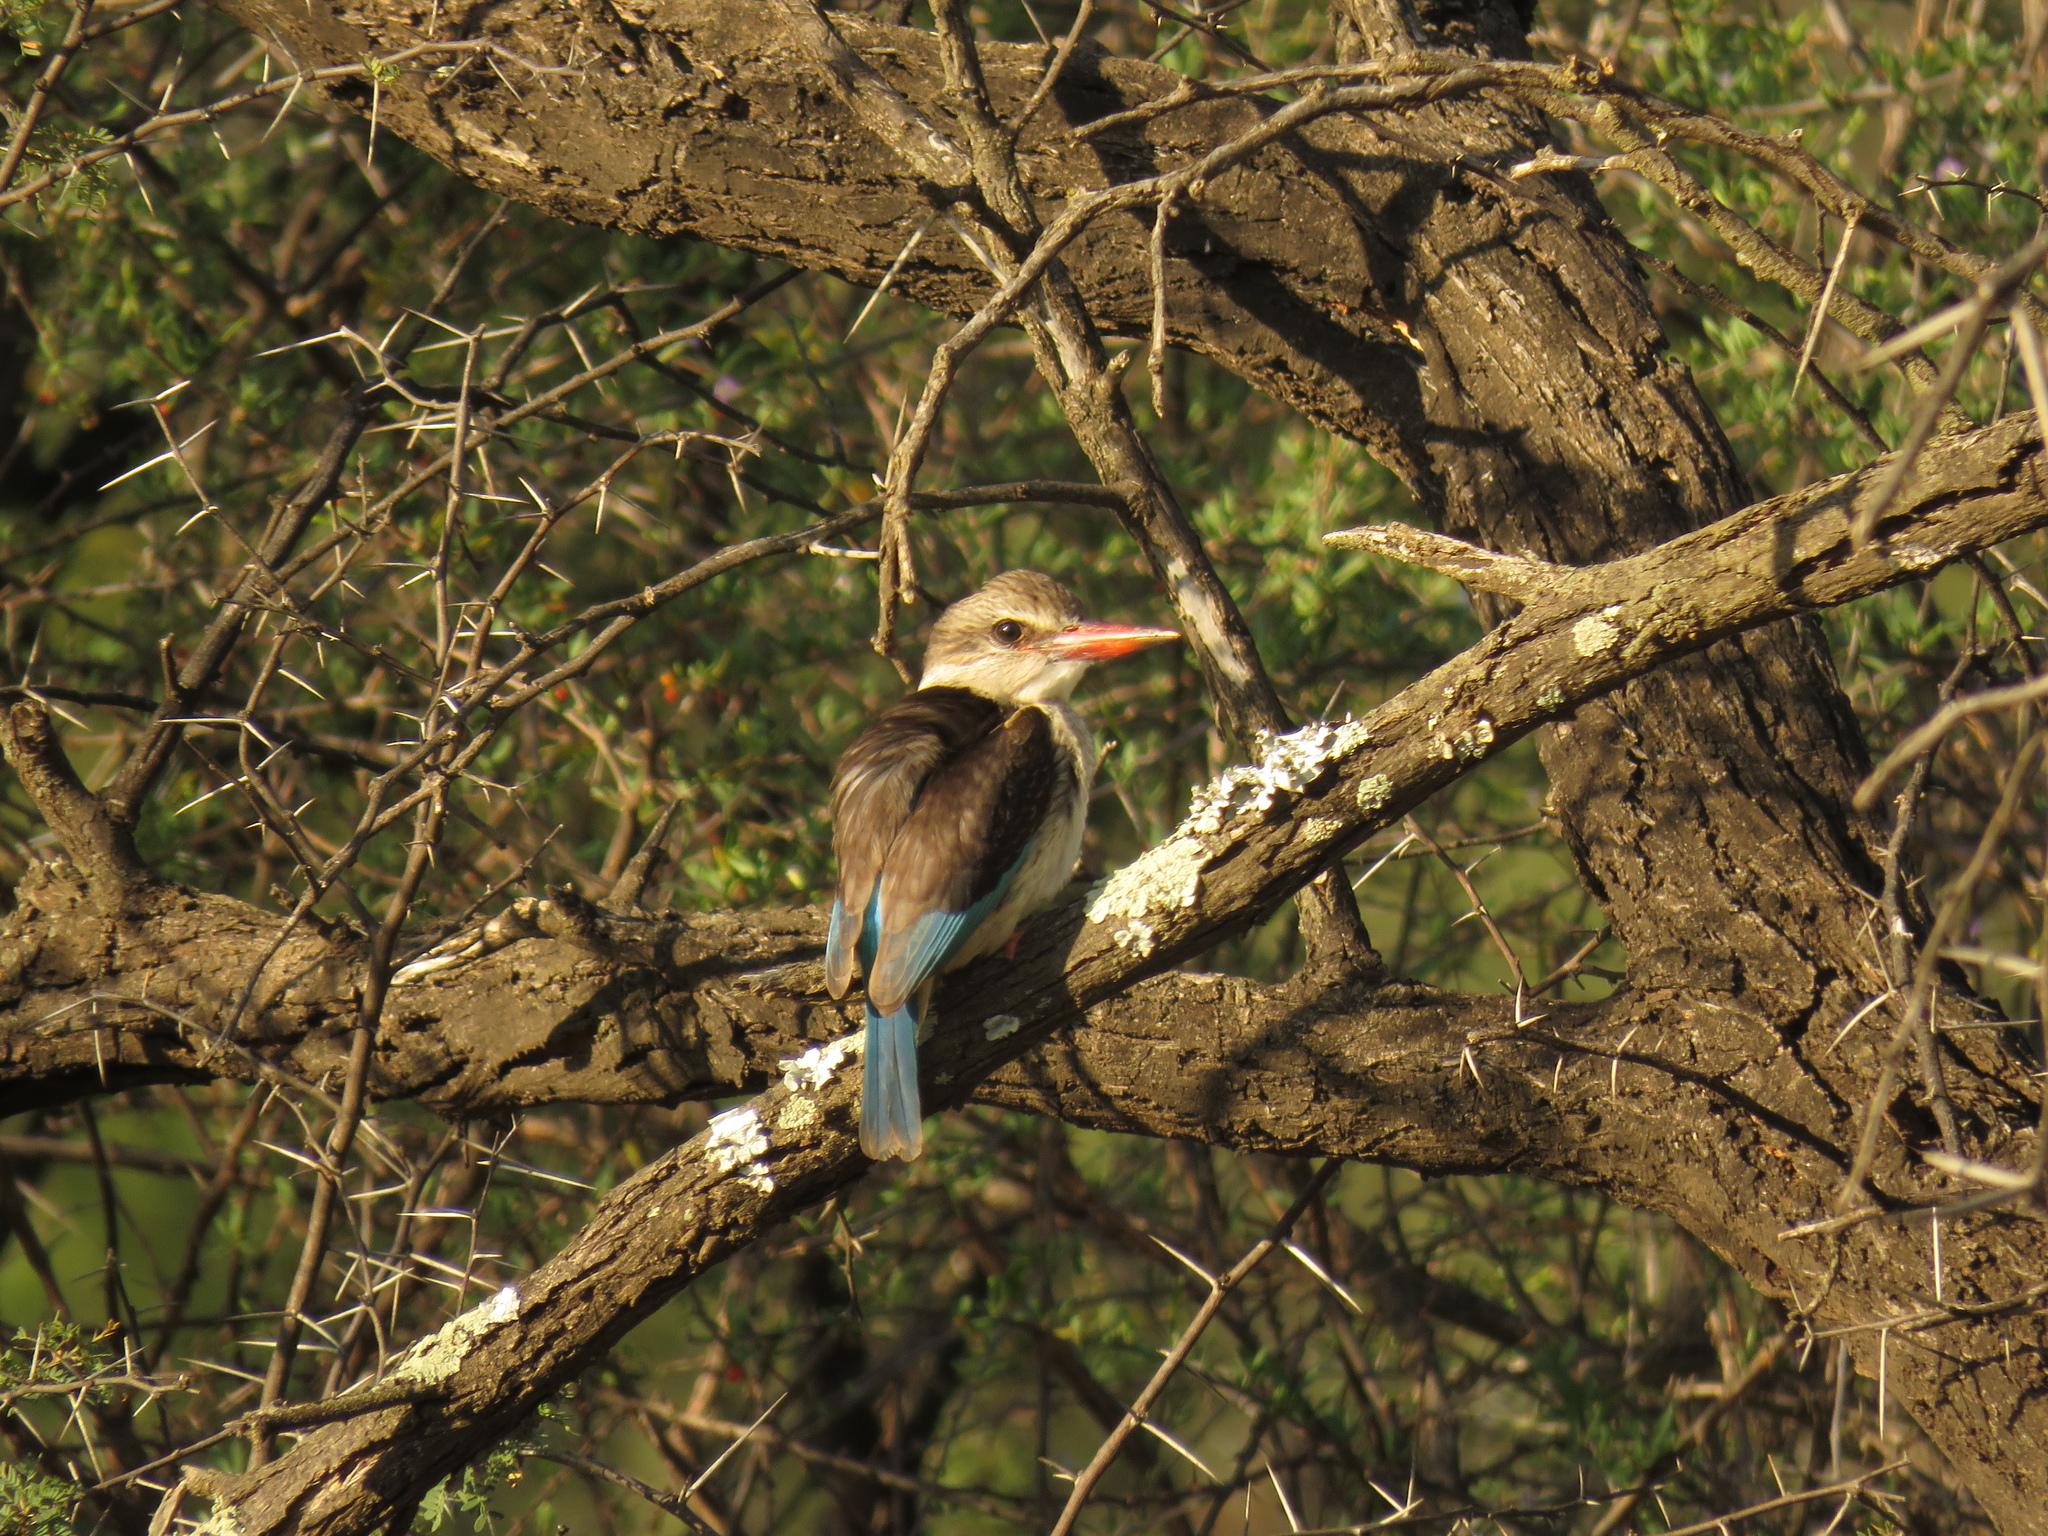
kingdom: Animalia
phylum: Chordata
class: Aves
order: Coraciiformes
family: Alcedinidae
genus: Halcyon
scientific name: Halcyon albiventris
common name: Brown-hooded kingfisher
